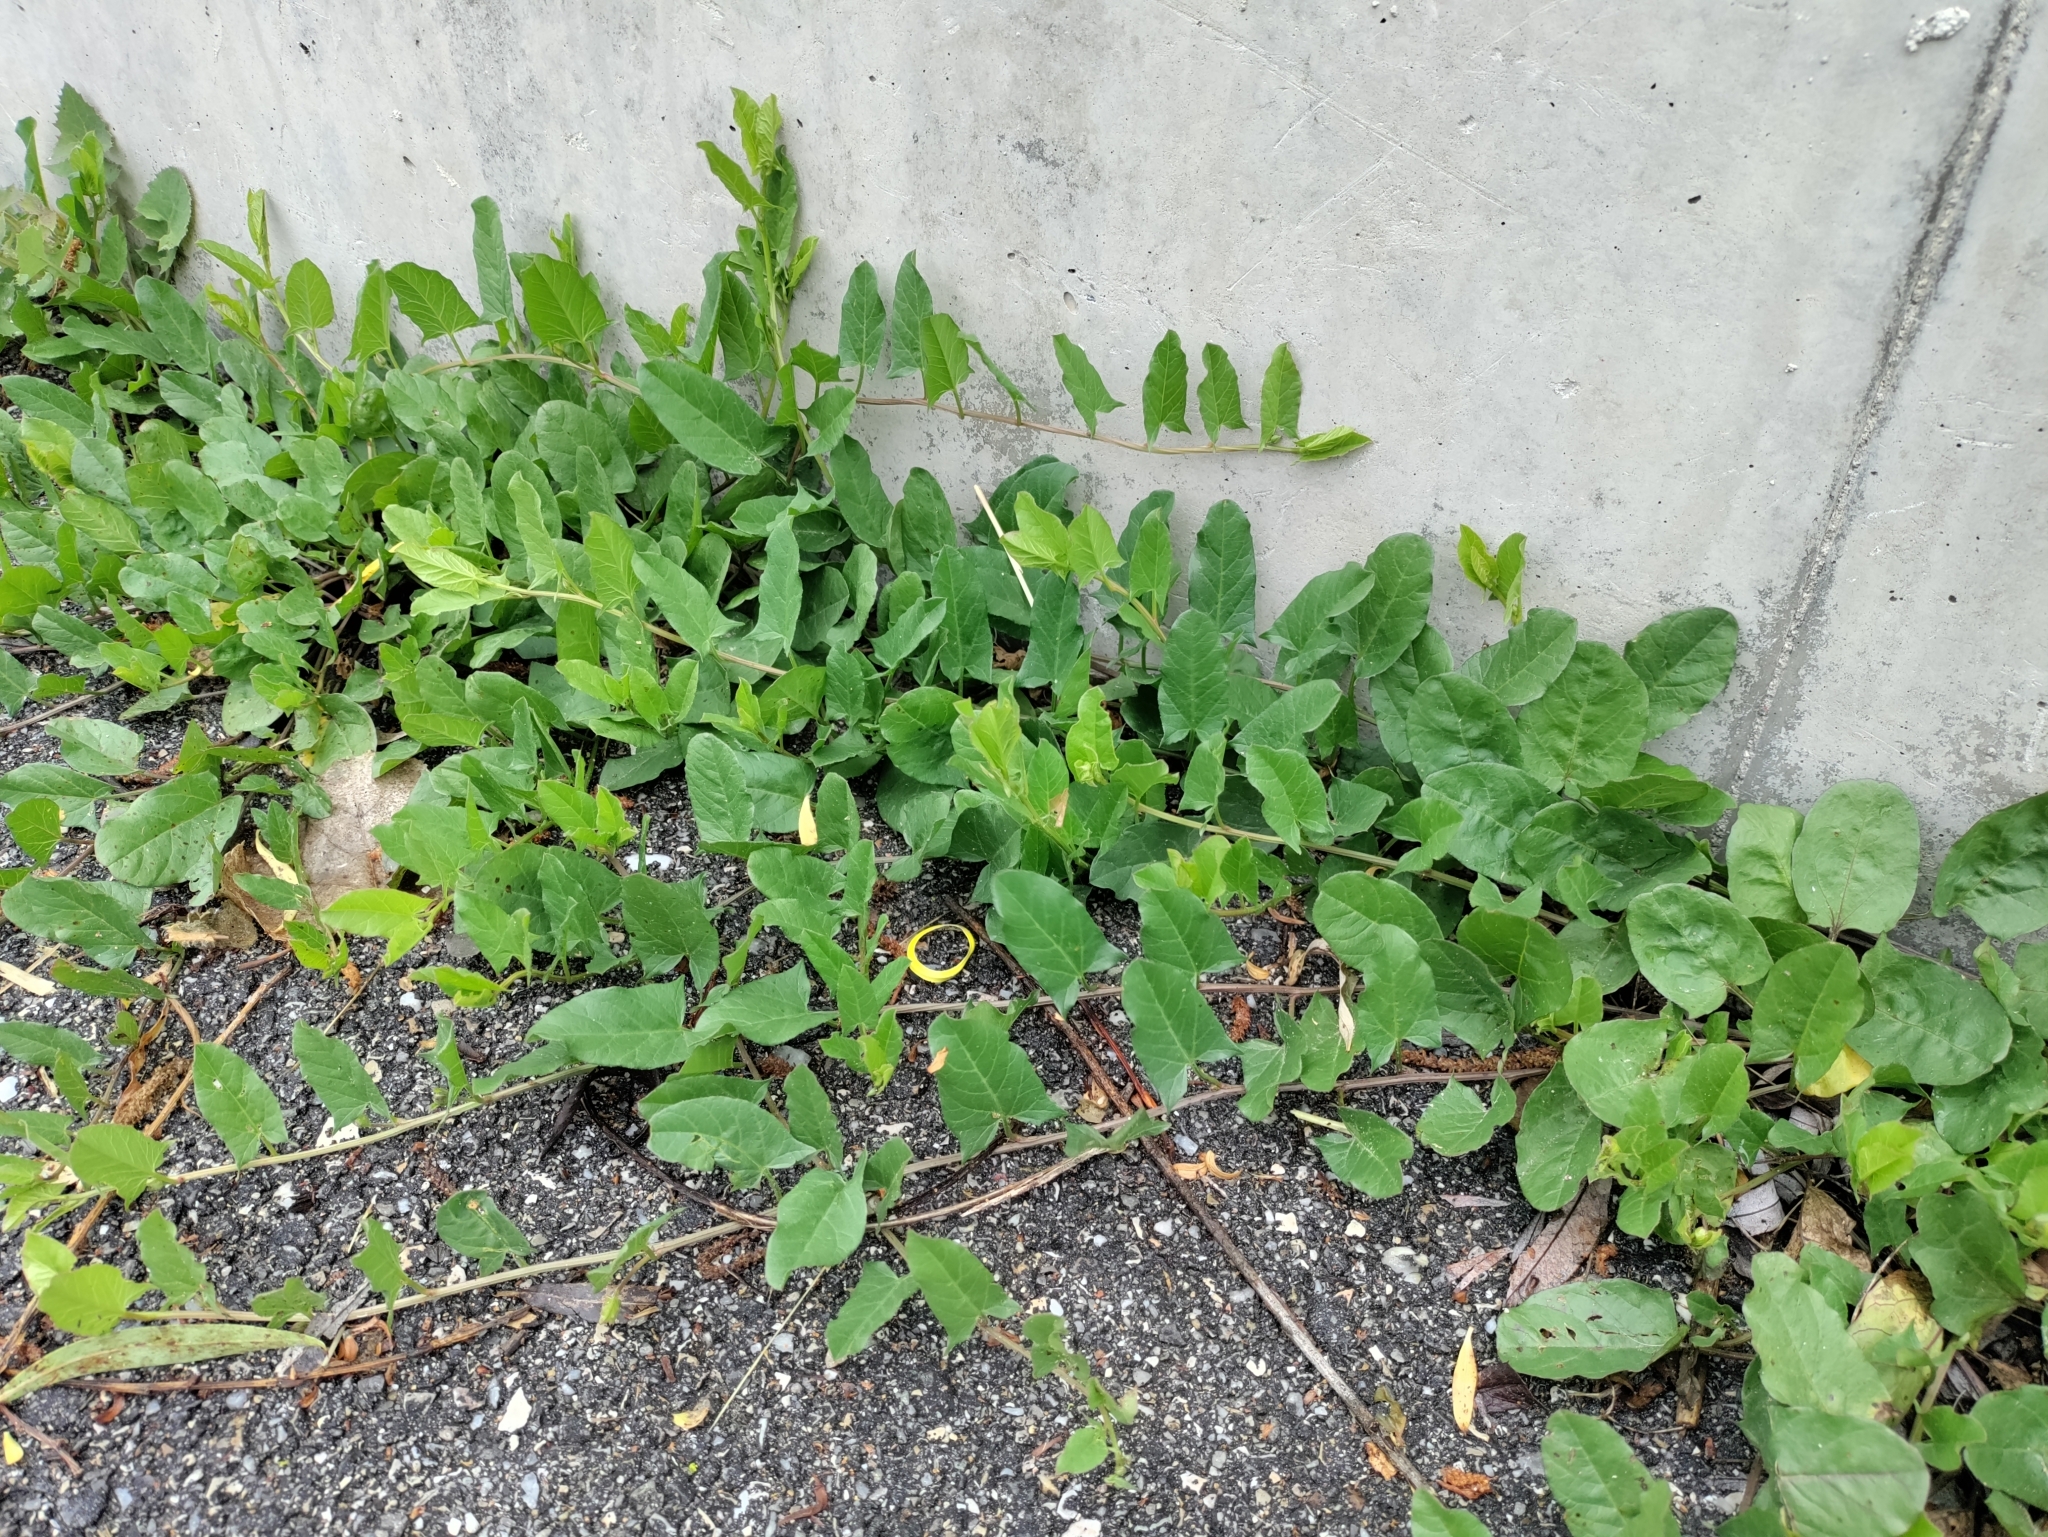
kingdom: Plantae
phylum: Tracheophyta
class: Magnoliopsida
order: Solanales
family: Convolvulaceae
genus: Convolvulus
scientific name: Convolvulus arvensis
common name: Field bindweed
